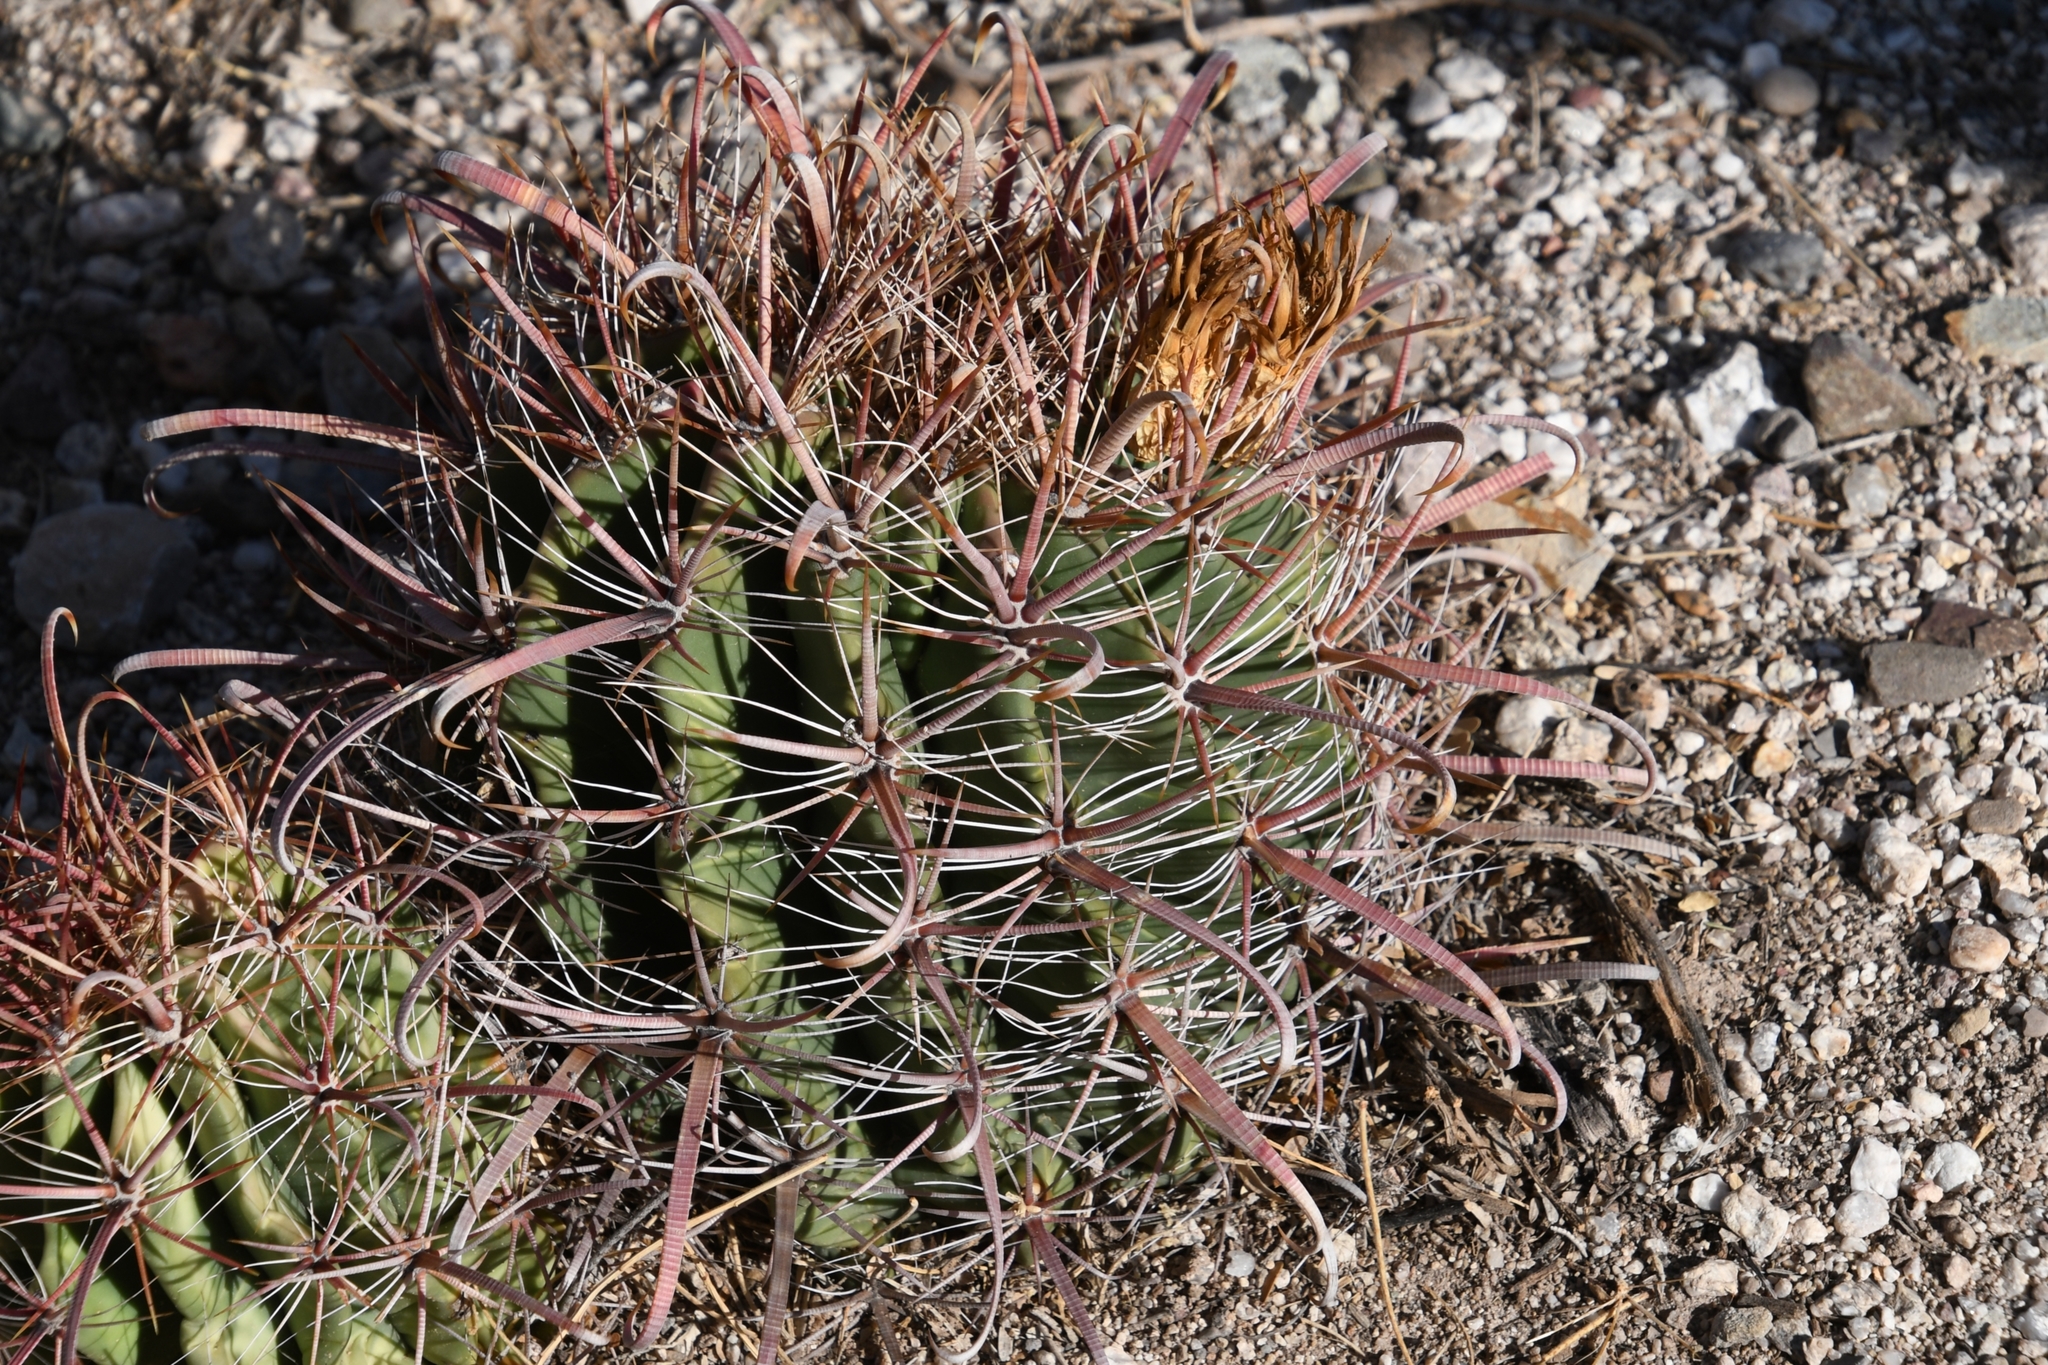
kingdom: Plantae
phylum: Tracheophyta
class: Magnoliopsida
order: Caryophyllales
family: Cactaceae
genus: Ferocactus
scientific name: Ferocactus wislizeni
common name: Candy barrel cactus
